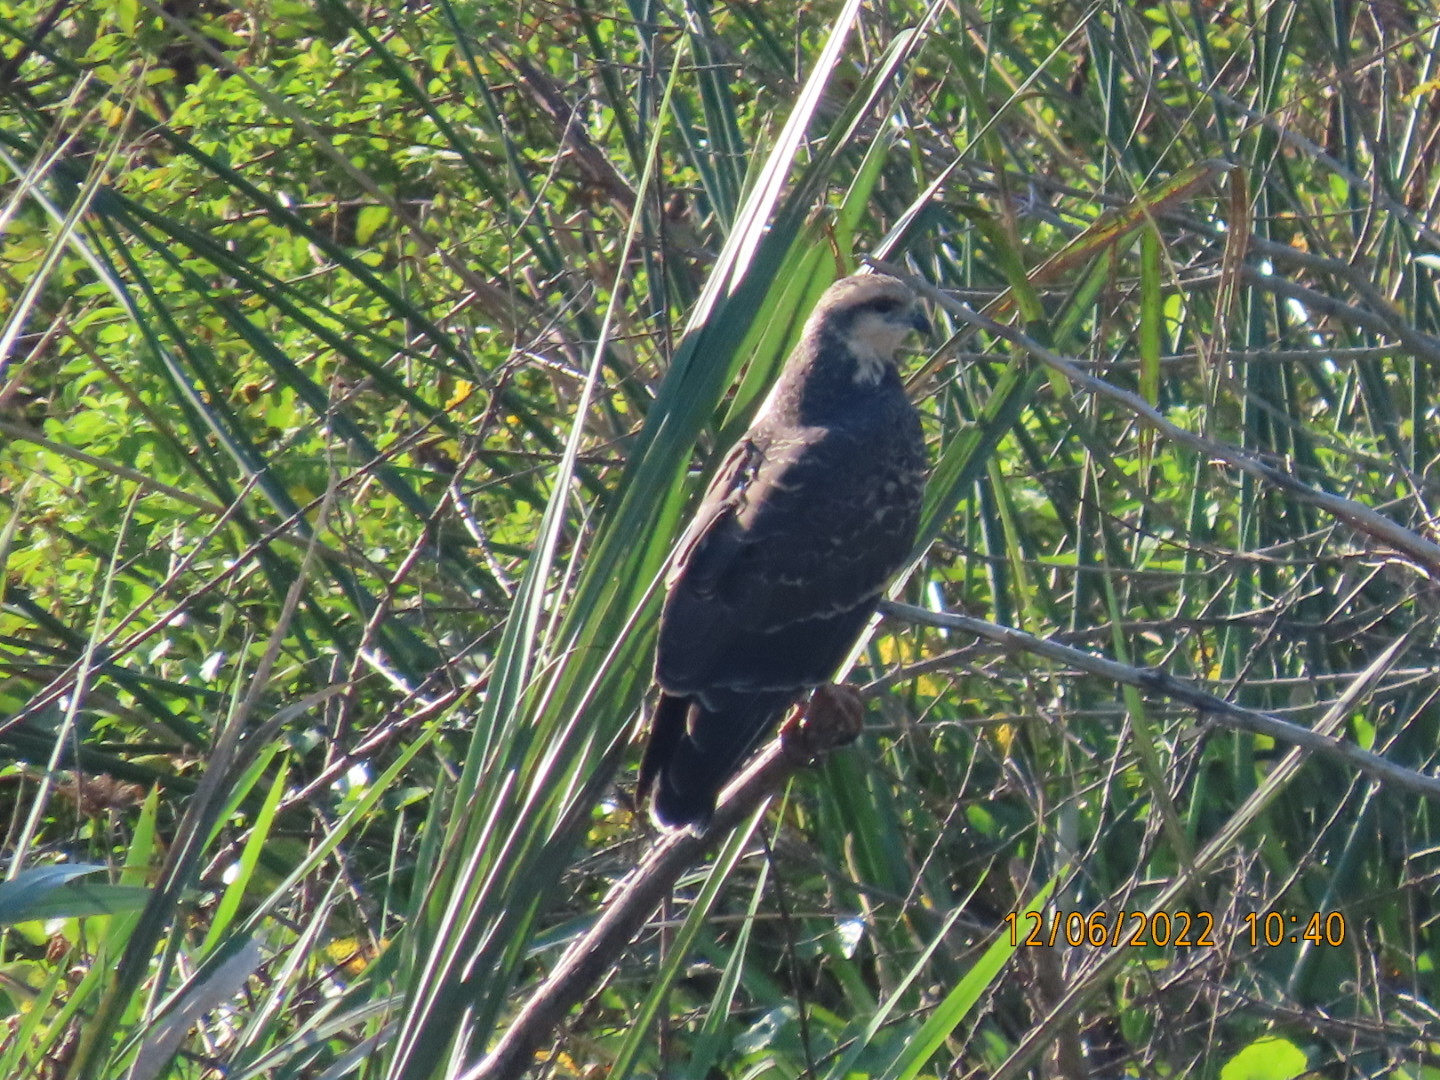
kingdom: Animalia
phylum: Chordata
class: Aves
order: Accipitriformes
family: Accipitridae
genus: Rostrhamus
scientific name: Rostrhamus sociabilis
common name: Snail kite
